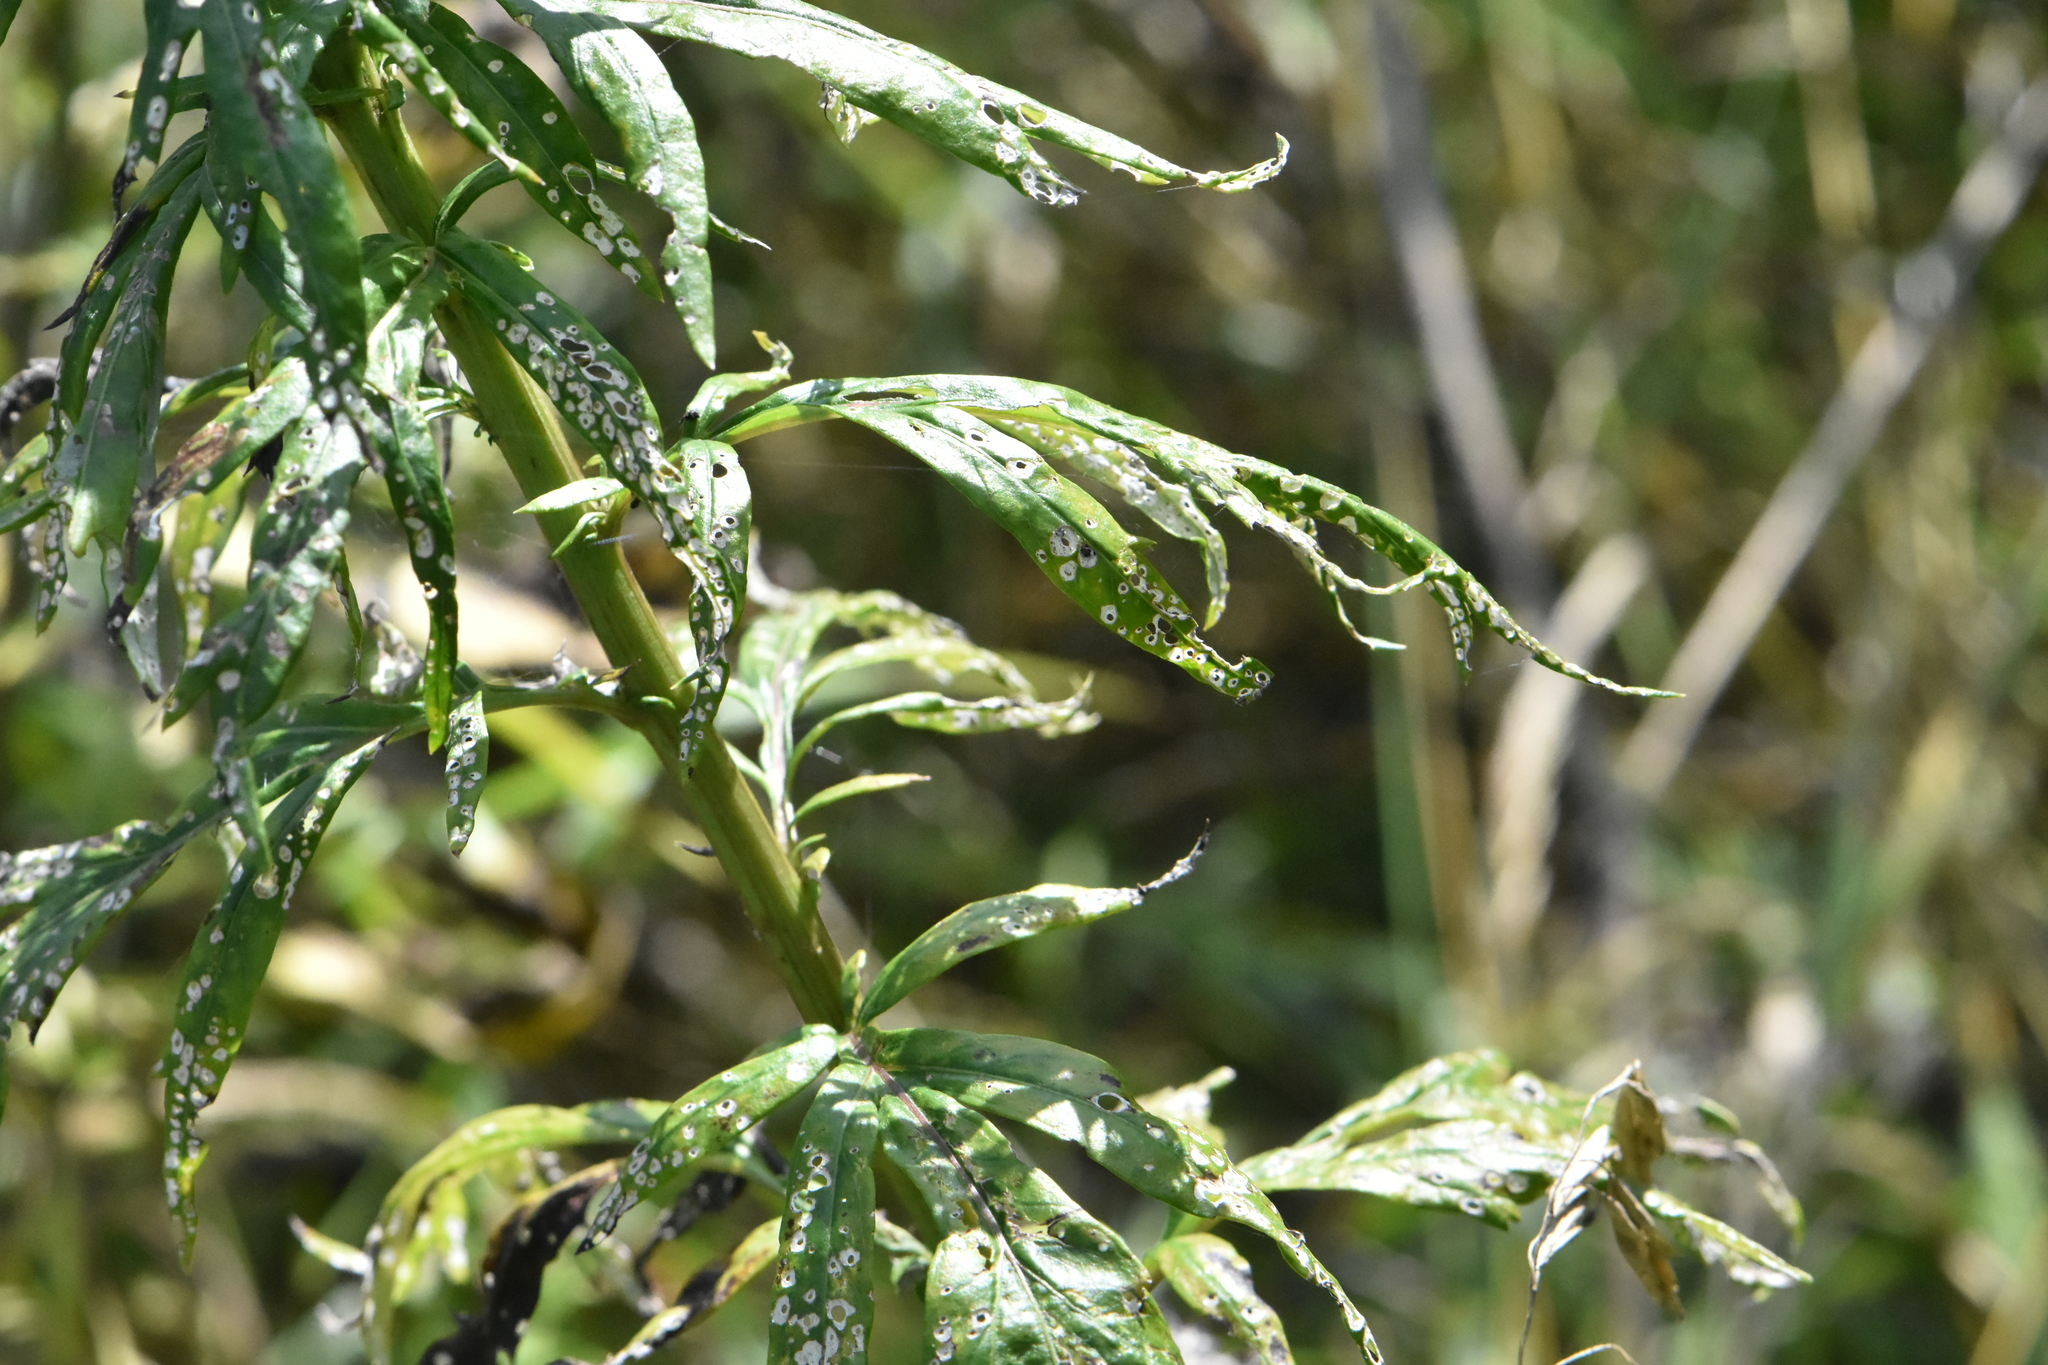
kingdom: Plantae
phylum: Tracheophyta
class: Magnoliopsida
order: Asterales
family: Asteraceae
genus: Artemisia
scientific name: Artemisia vulgaris
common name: Mugwort
